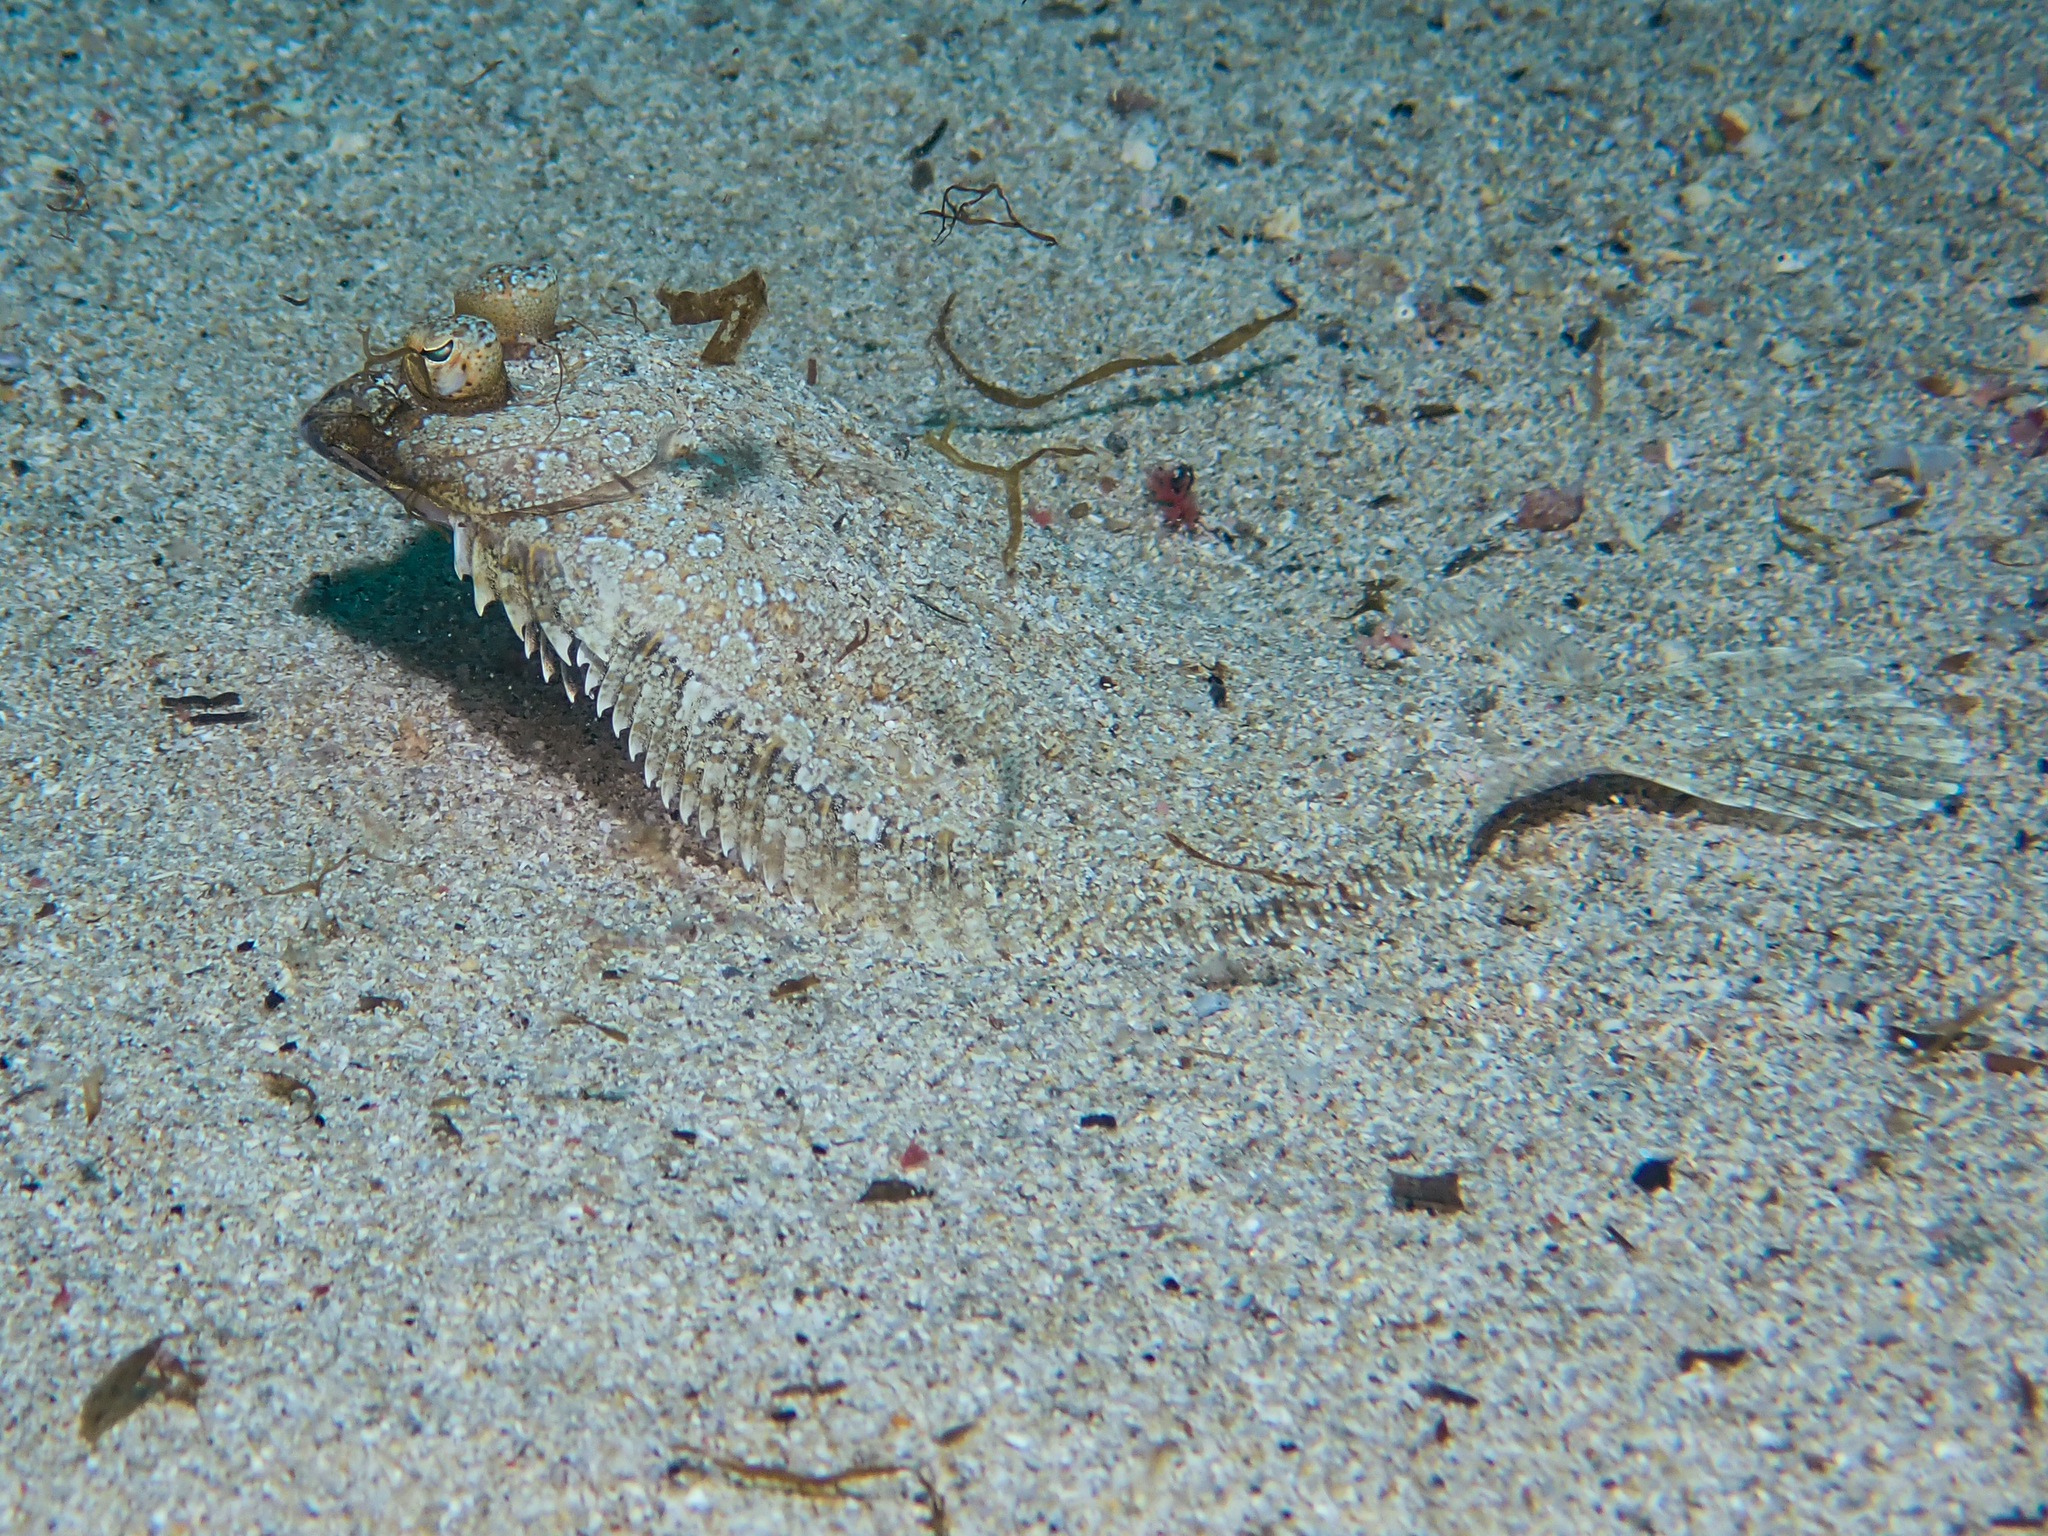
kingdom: Animalia
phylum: Chordata
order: Pleuronectiformes
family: Bothidae
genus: Bothus
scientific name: Bothus podas
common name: Wide-eyed flounder
